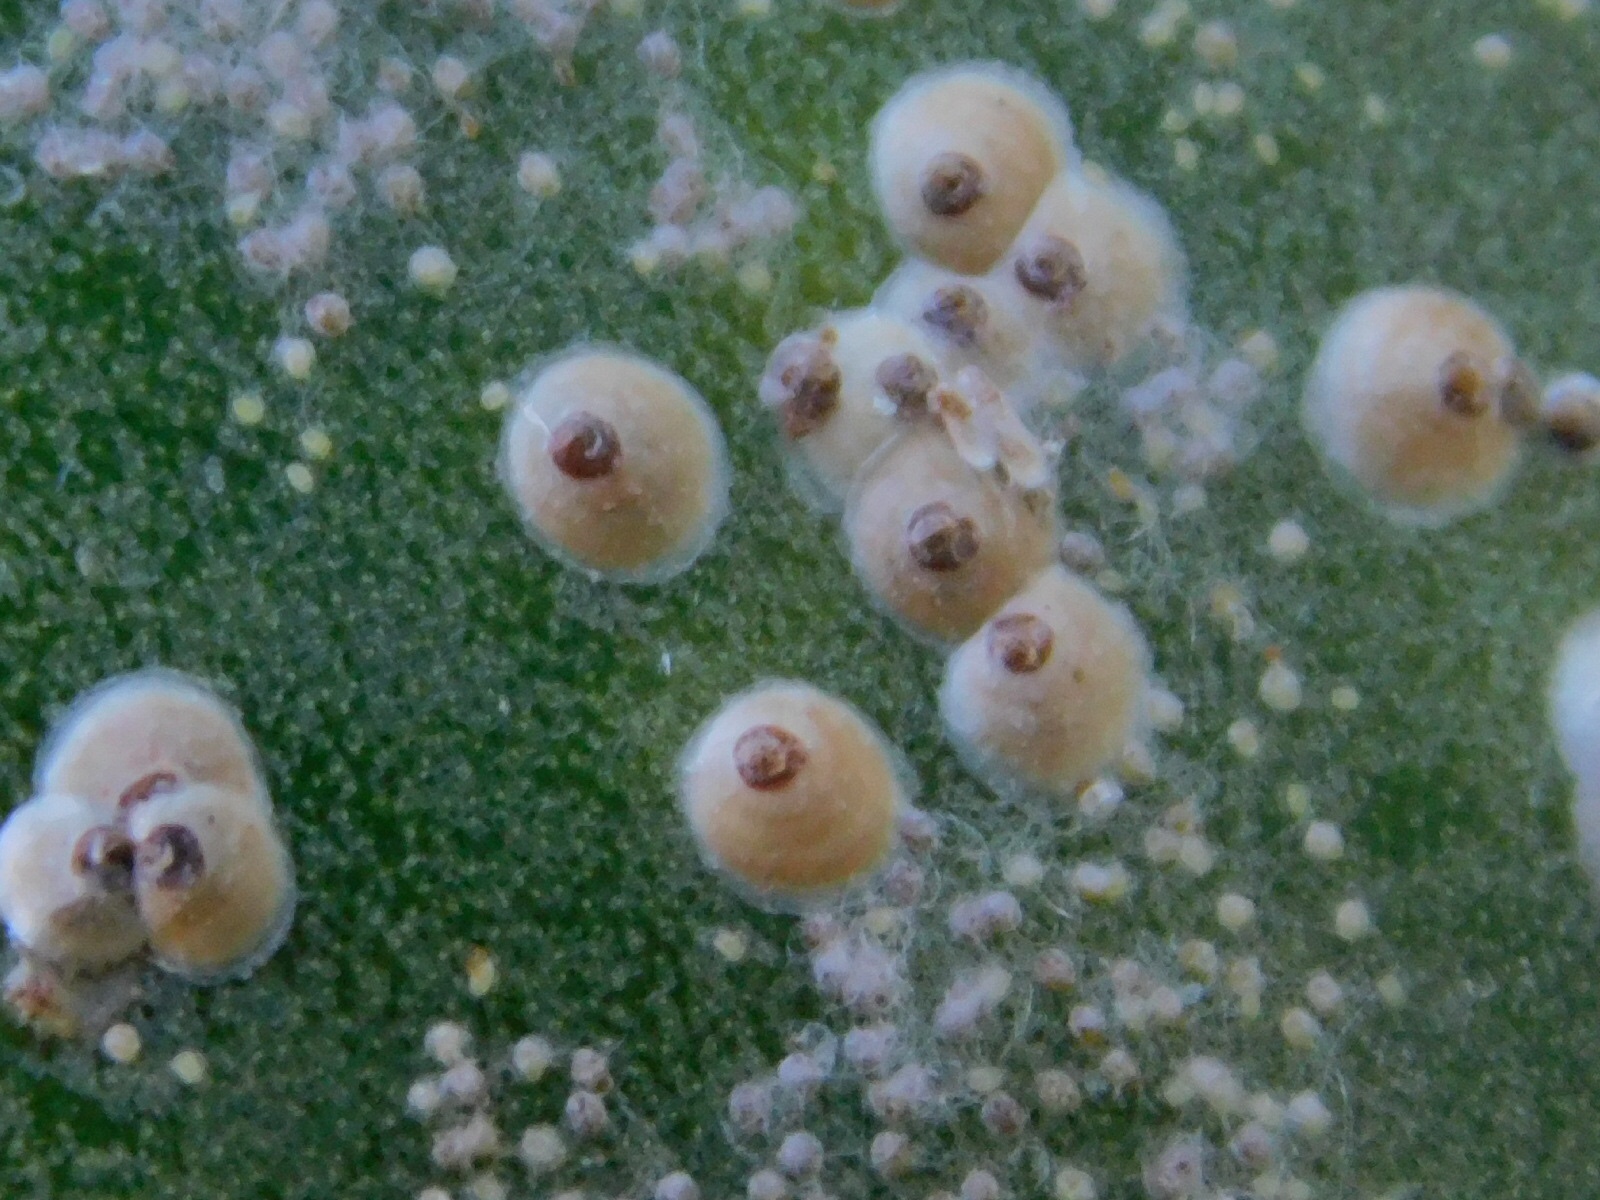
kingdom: Animalia
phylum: Arthropoda
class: Insecta
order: Hemiptera
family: Diaspididae
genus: Diaspis
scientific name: Diaspis echinocacti
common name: Cactus scale
